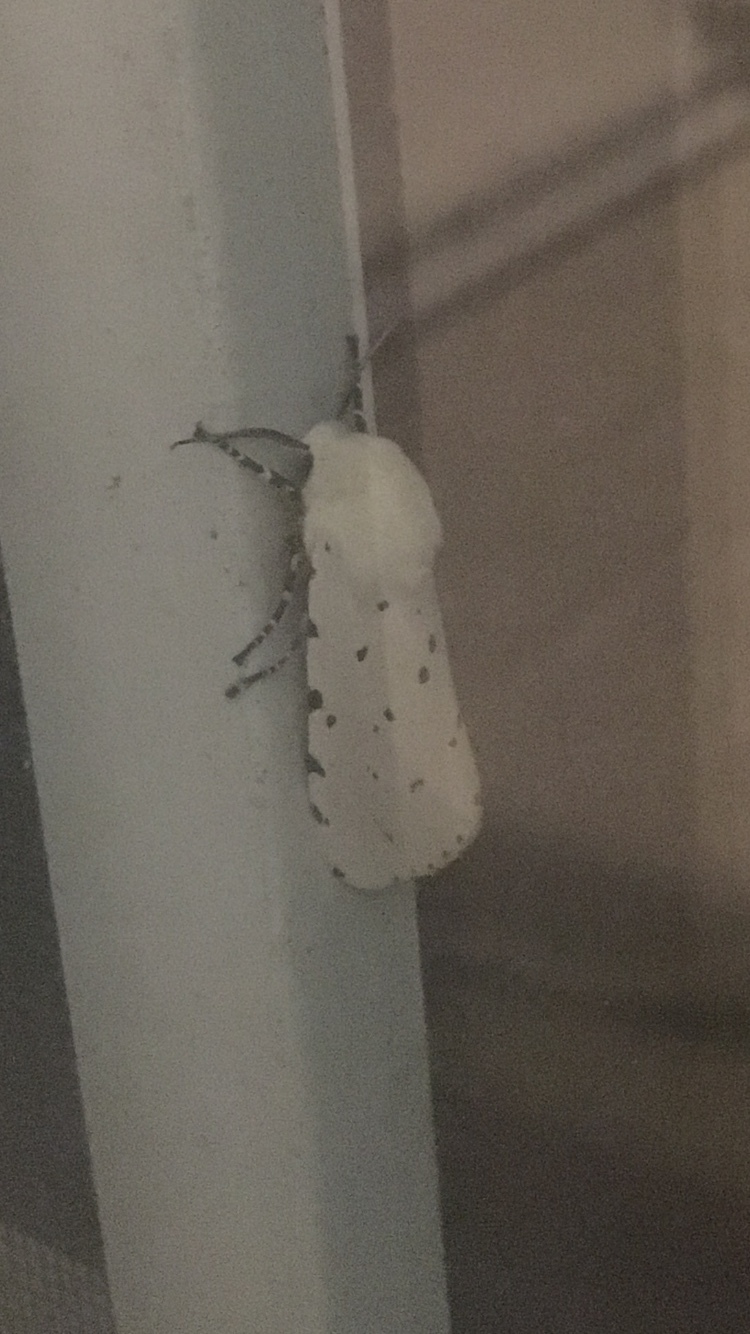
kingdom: Animalia
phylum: Arthropoda
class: Insecta
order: Lepidoptera
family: Erebidae
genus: Estigmene
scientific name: Estigmene acrea
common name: Salt marsh moth
